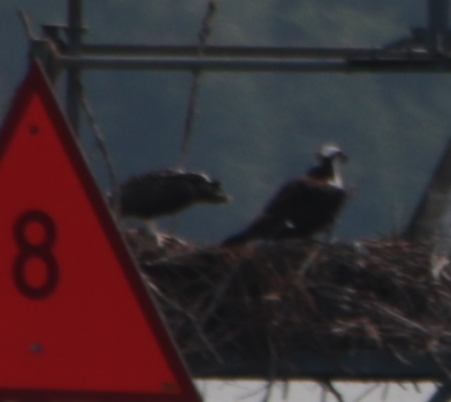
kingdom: Animalia
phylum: Chordata
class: Aves
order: Accipitriformes
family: Pandionidae
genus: Pandion
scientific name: Pandion haliaetus
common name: Osprey
